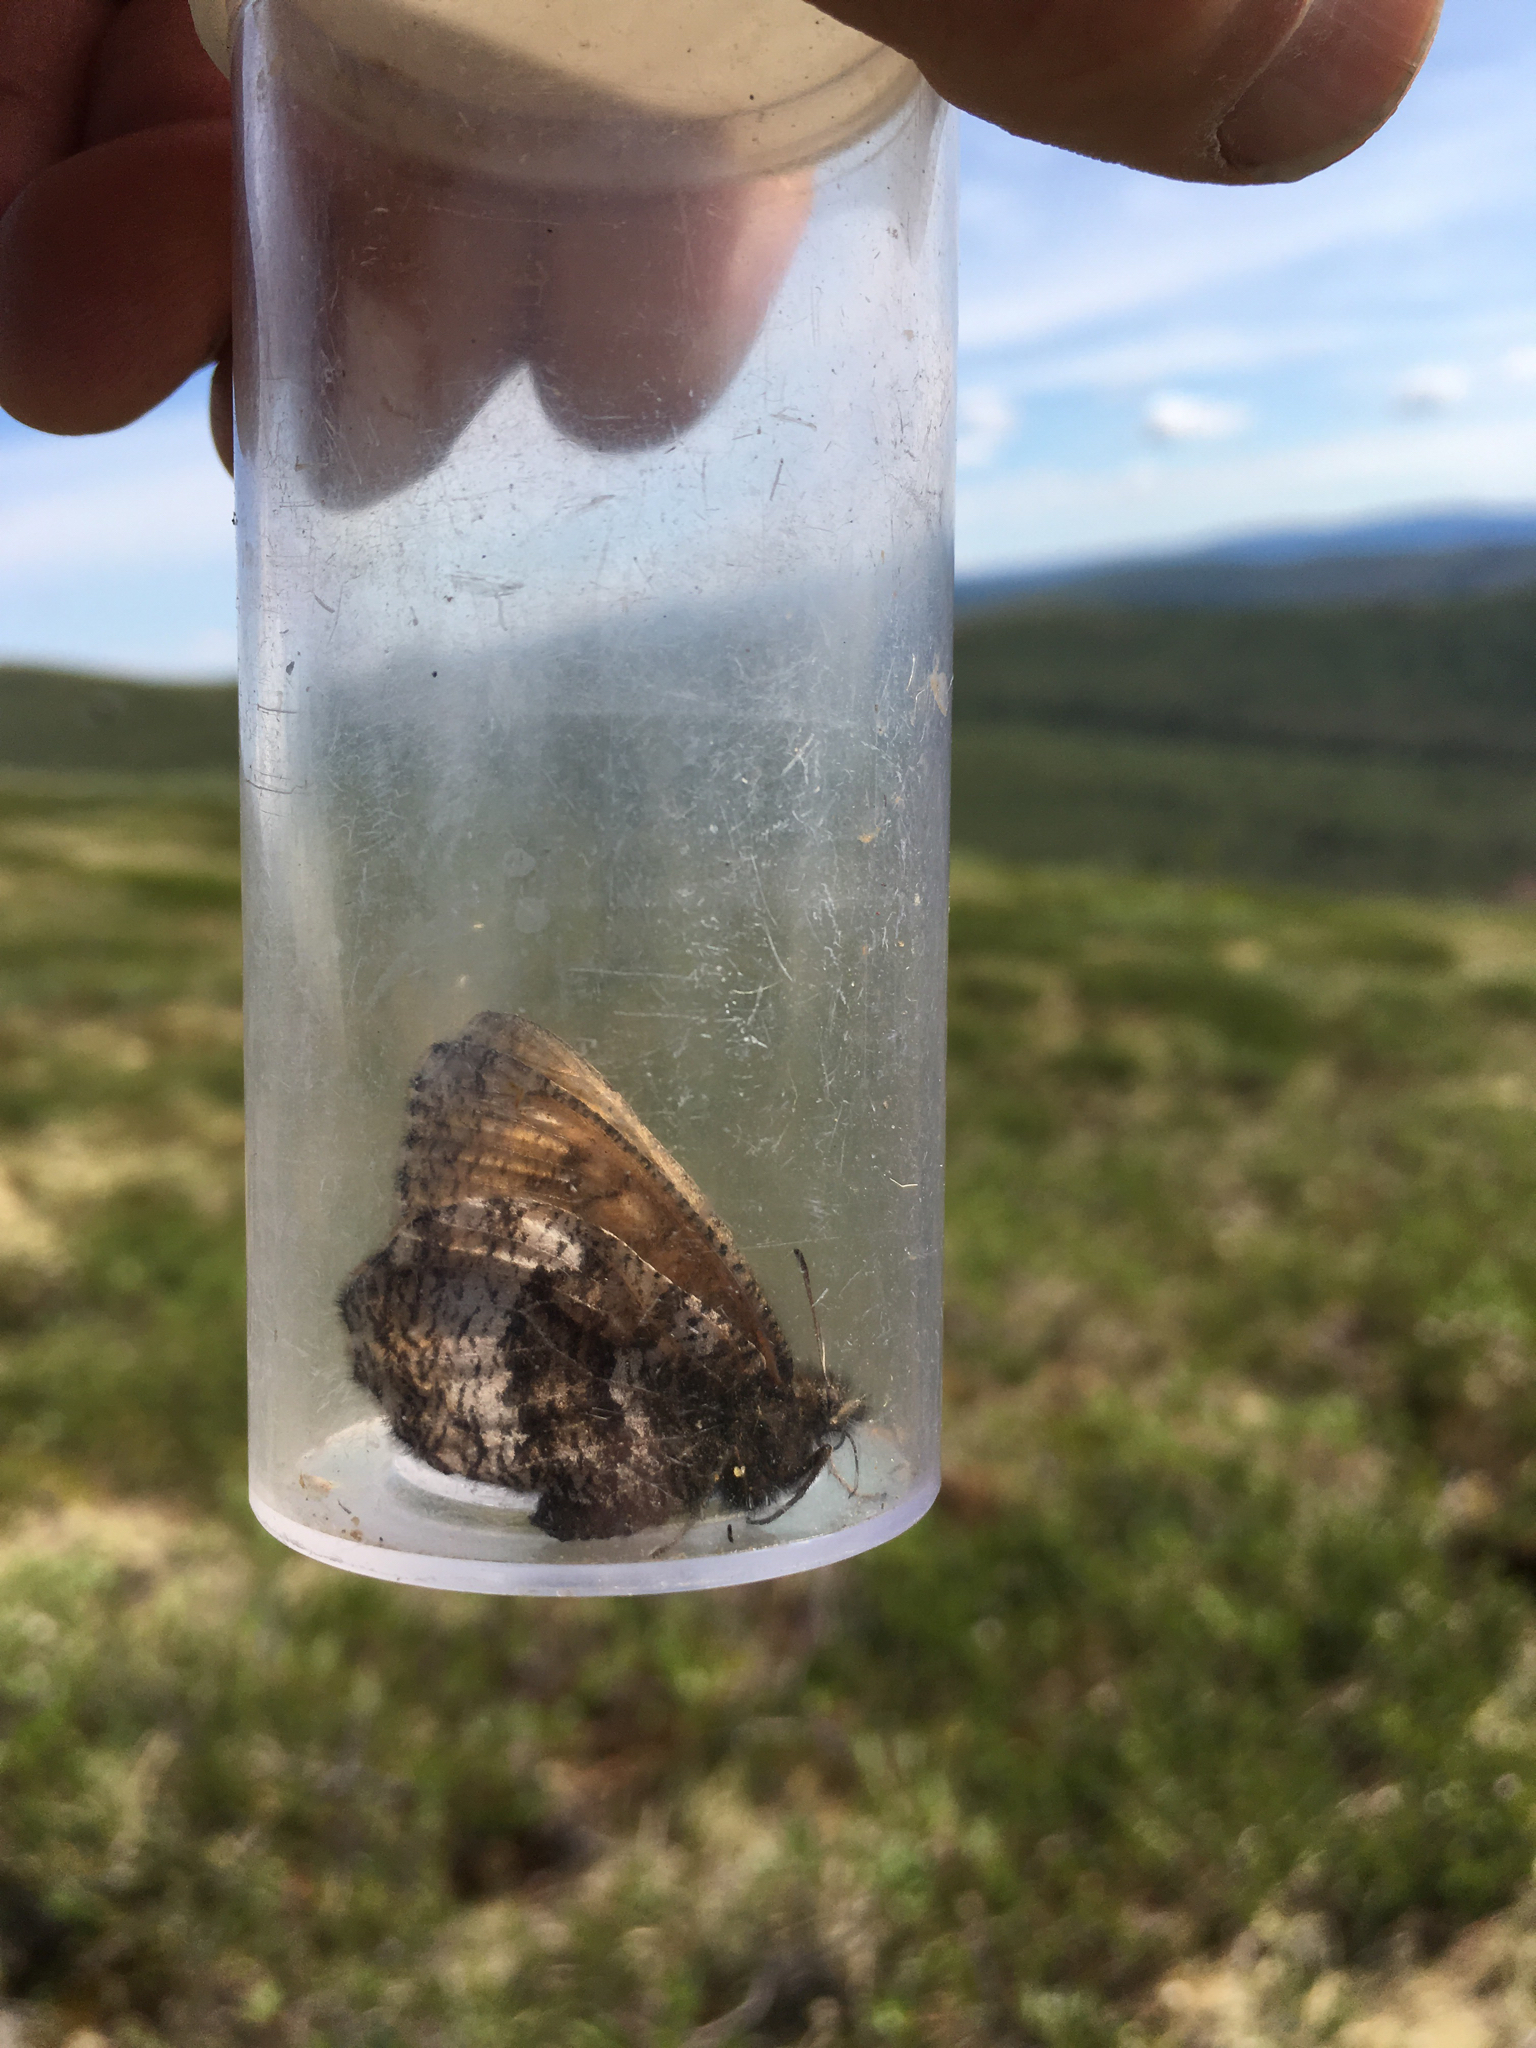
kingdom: Animalia
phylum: Arthropoda
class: Insecta
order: Lepidoptera
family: Nymphalidae
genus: Oeneis
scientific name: Oeneis bore
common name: Arctic grayling
